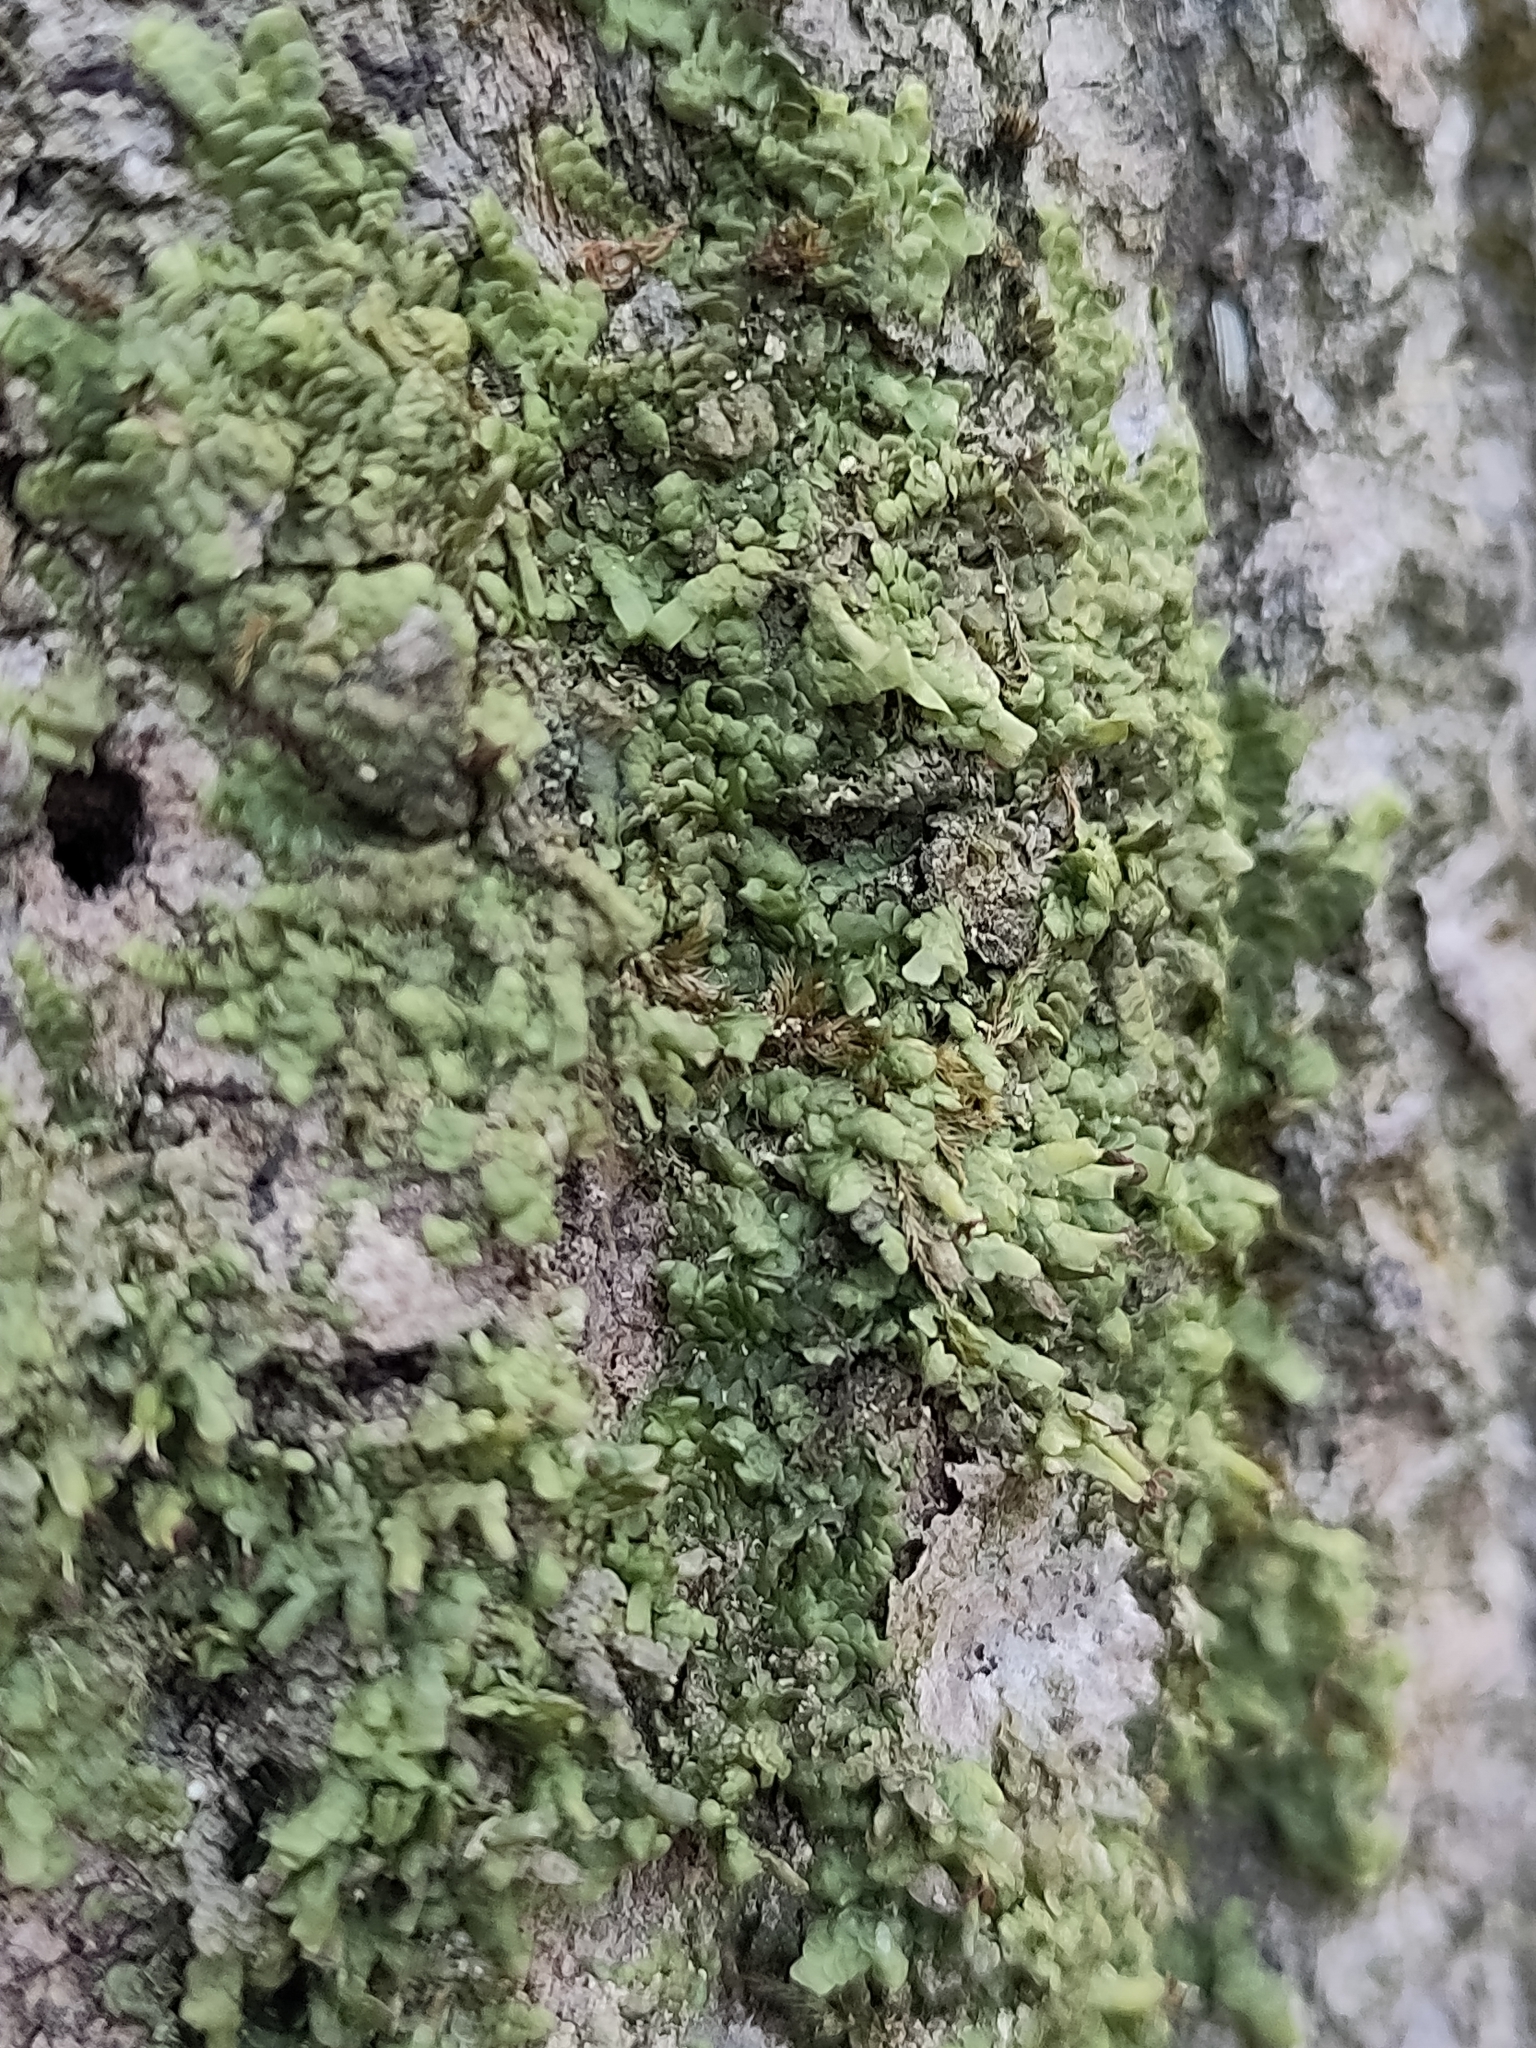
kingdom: Plantae
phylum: Marchantiophyta
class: Jungermanniopsida
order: Porellales
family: Radulaceae
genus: Radula
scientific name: Radula complanata
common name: Flat-leaved scalewort
